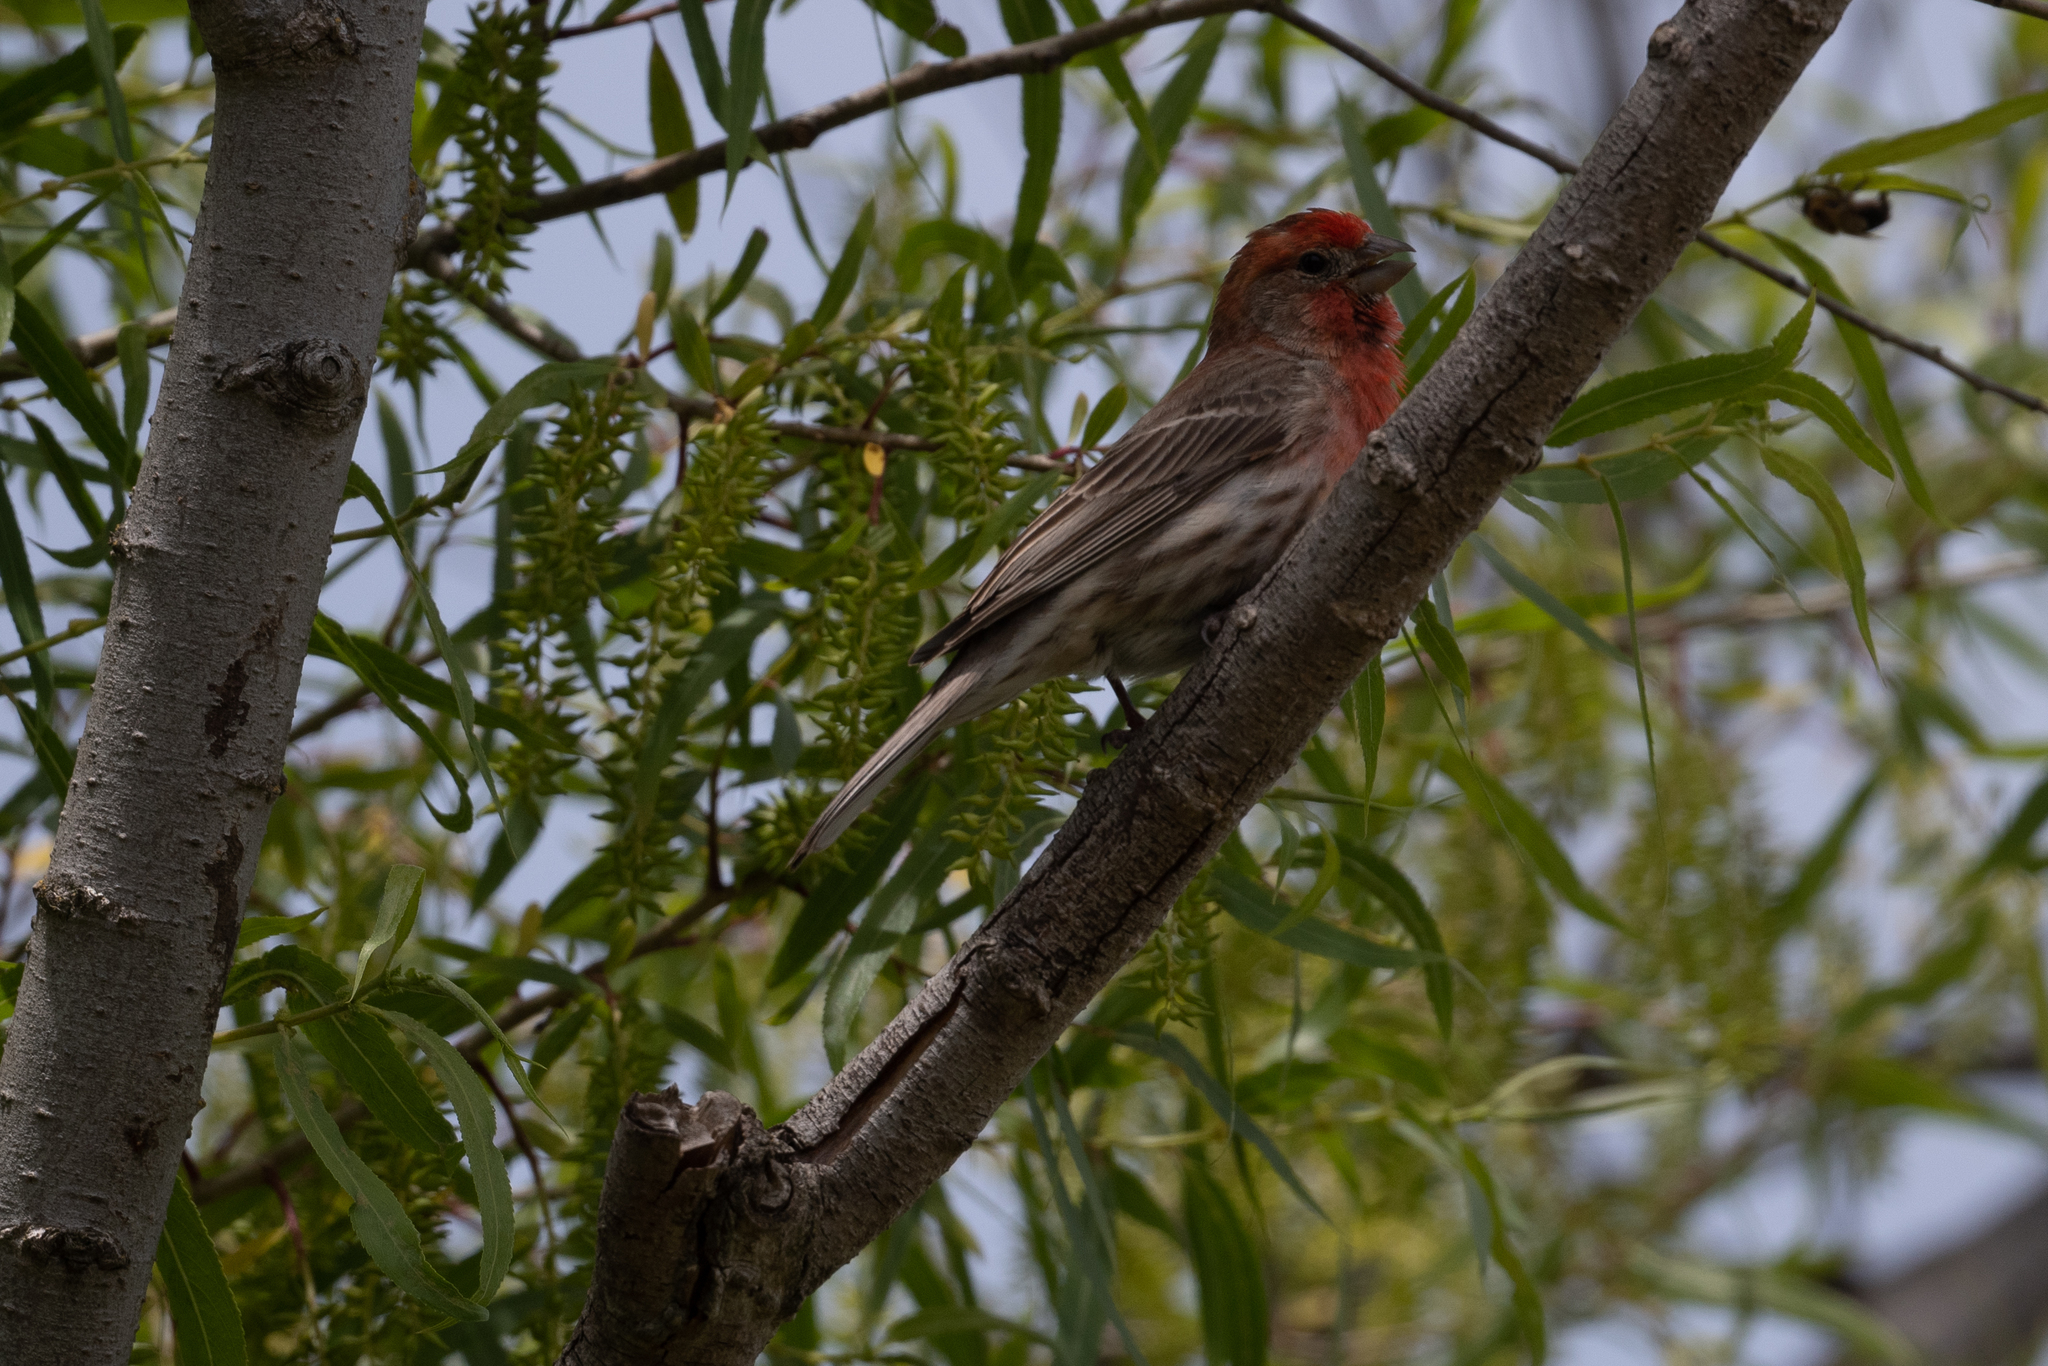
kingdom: Animalia
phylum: Chordata
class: Aves
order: Passeriformes
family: Fringillidae
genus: Haemorhous
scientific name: Haemorhous mexicanus
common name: House finch
